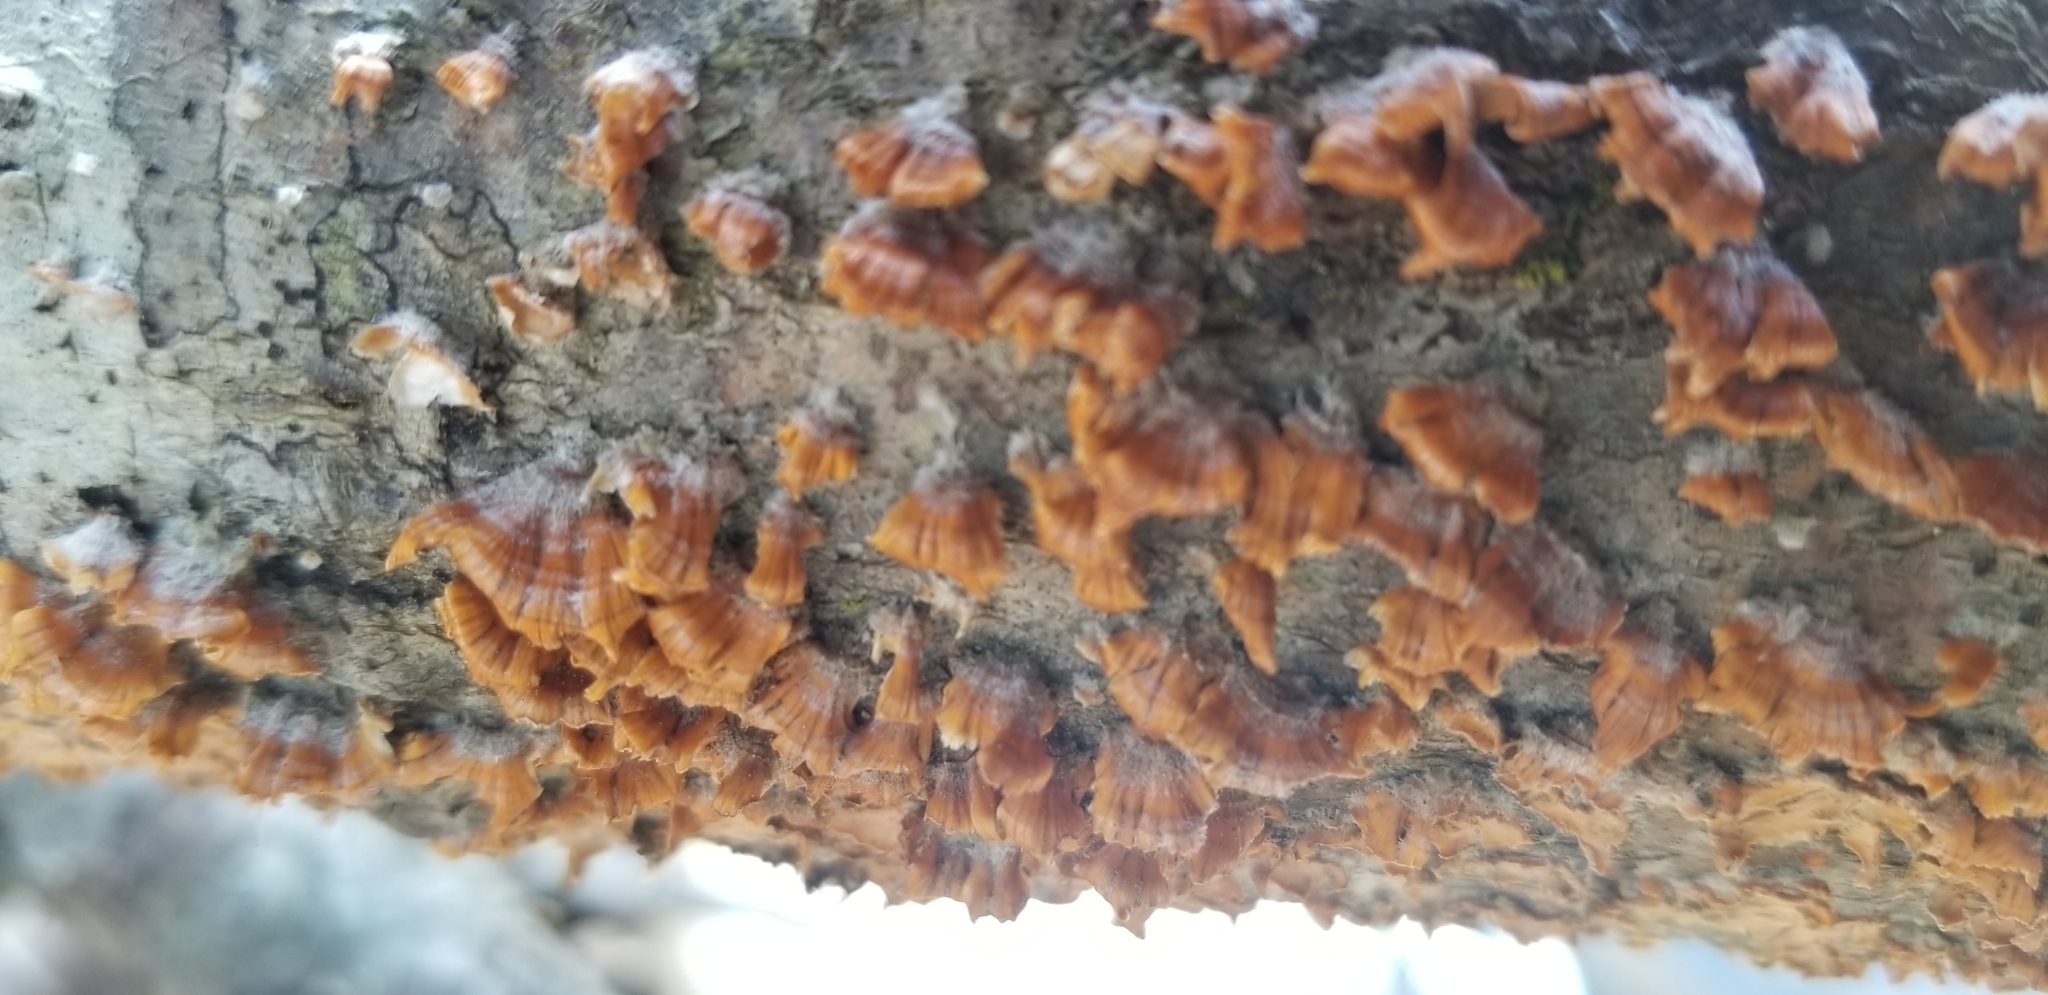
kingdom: Fungi
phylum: Basidiomycota
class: Agaricomycetes
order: Russulales
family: Stereaceae
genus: Stereum
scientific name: Stereum complicatum
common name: Crowded parchment
